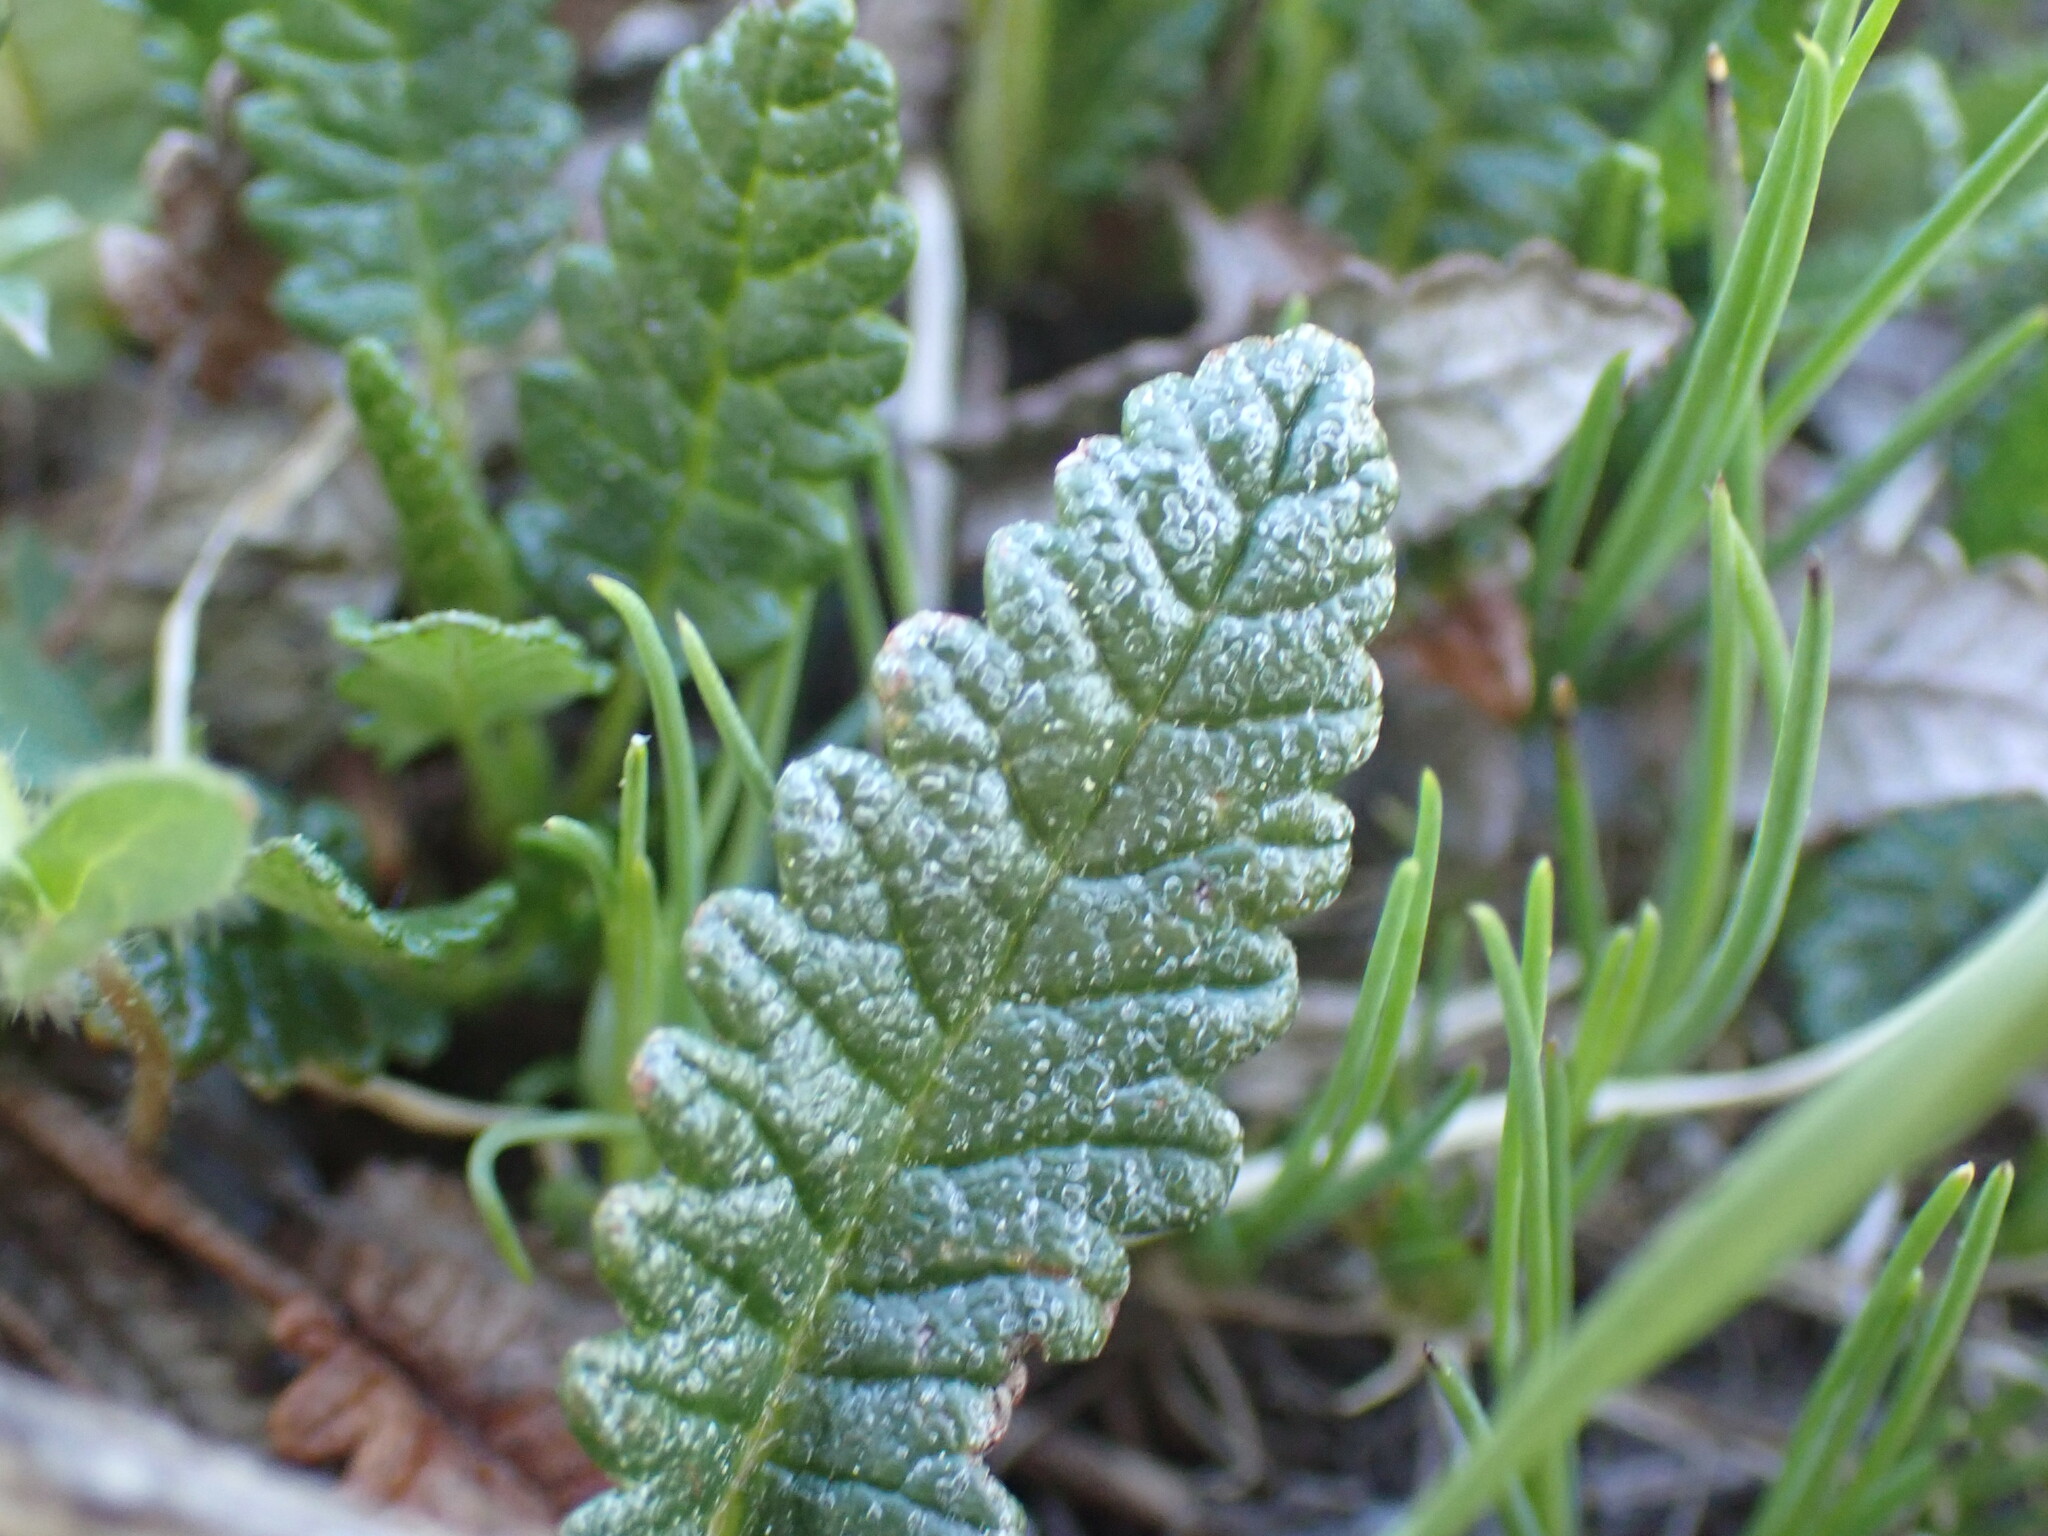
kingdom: Plantae
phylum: Tracheophyta
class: Magnoliopsida
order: Rosales
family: Rosaceae
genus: Dryas
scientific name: Dryas octopetala
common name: Eight-petal mountain-avens
